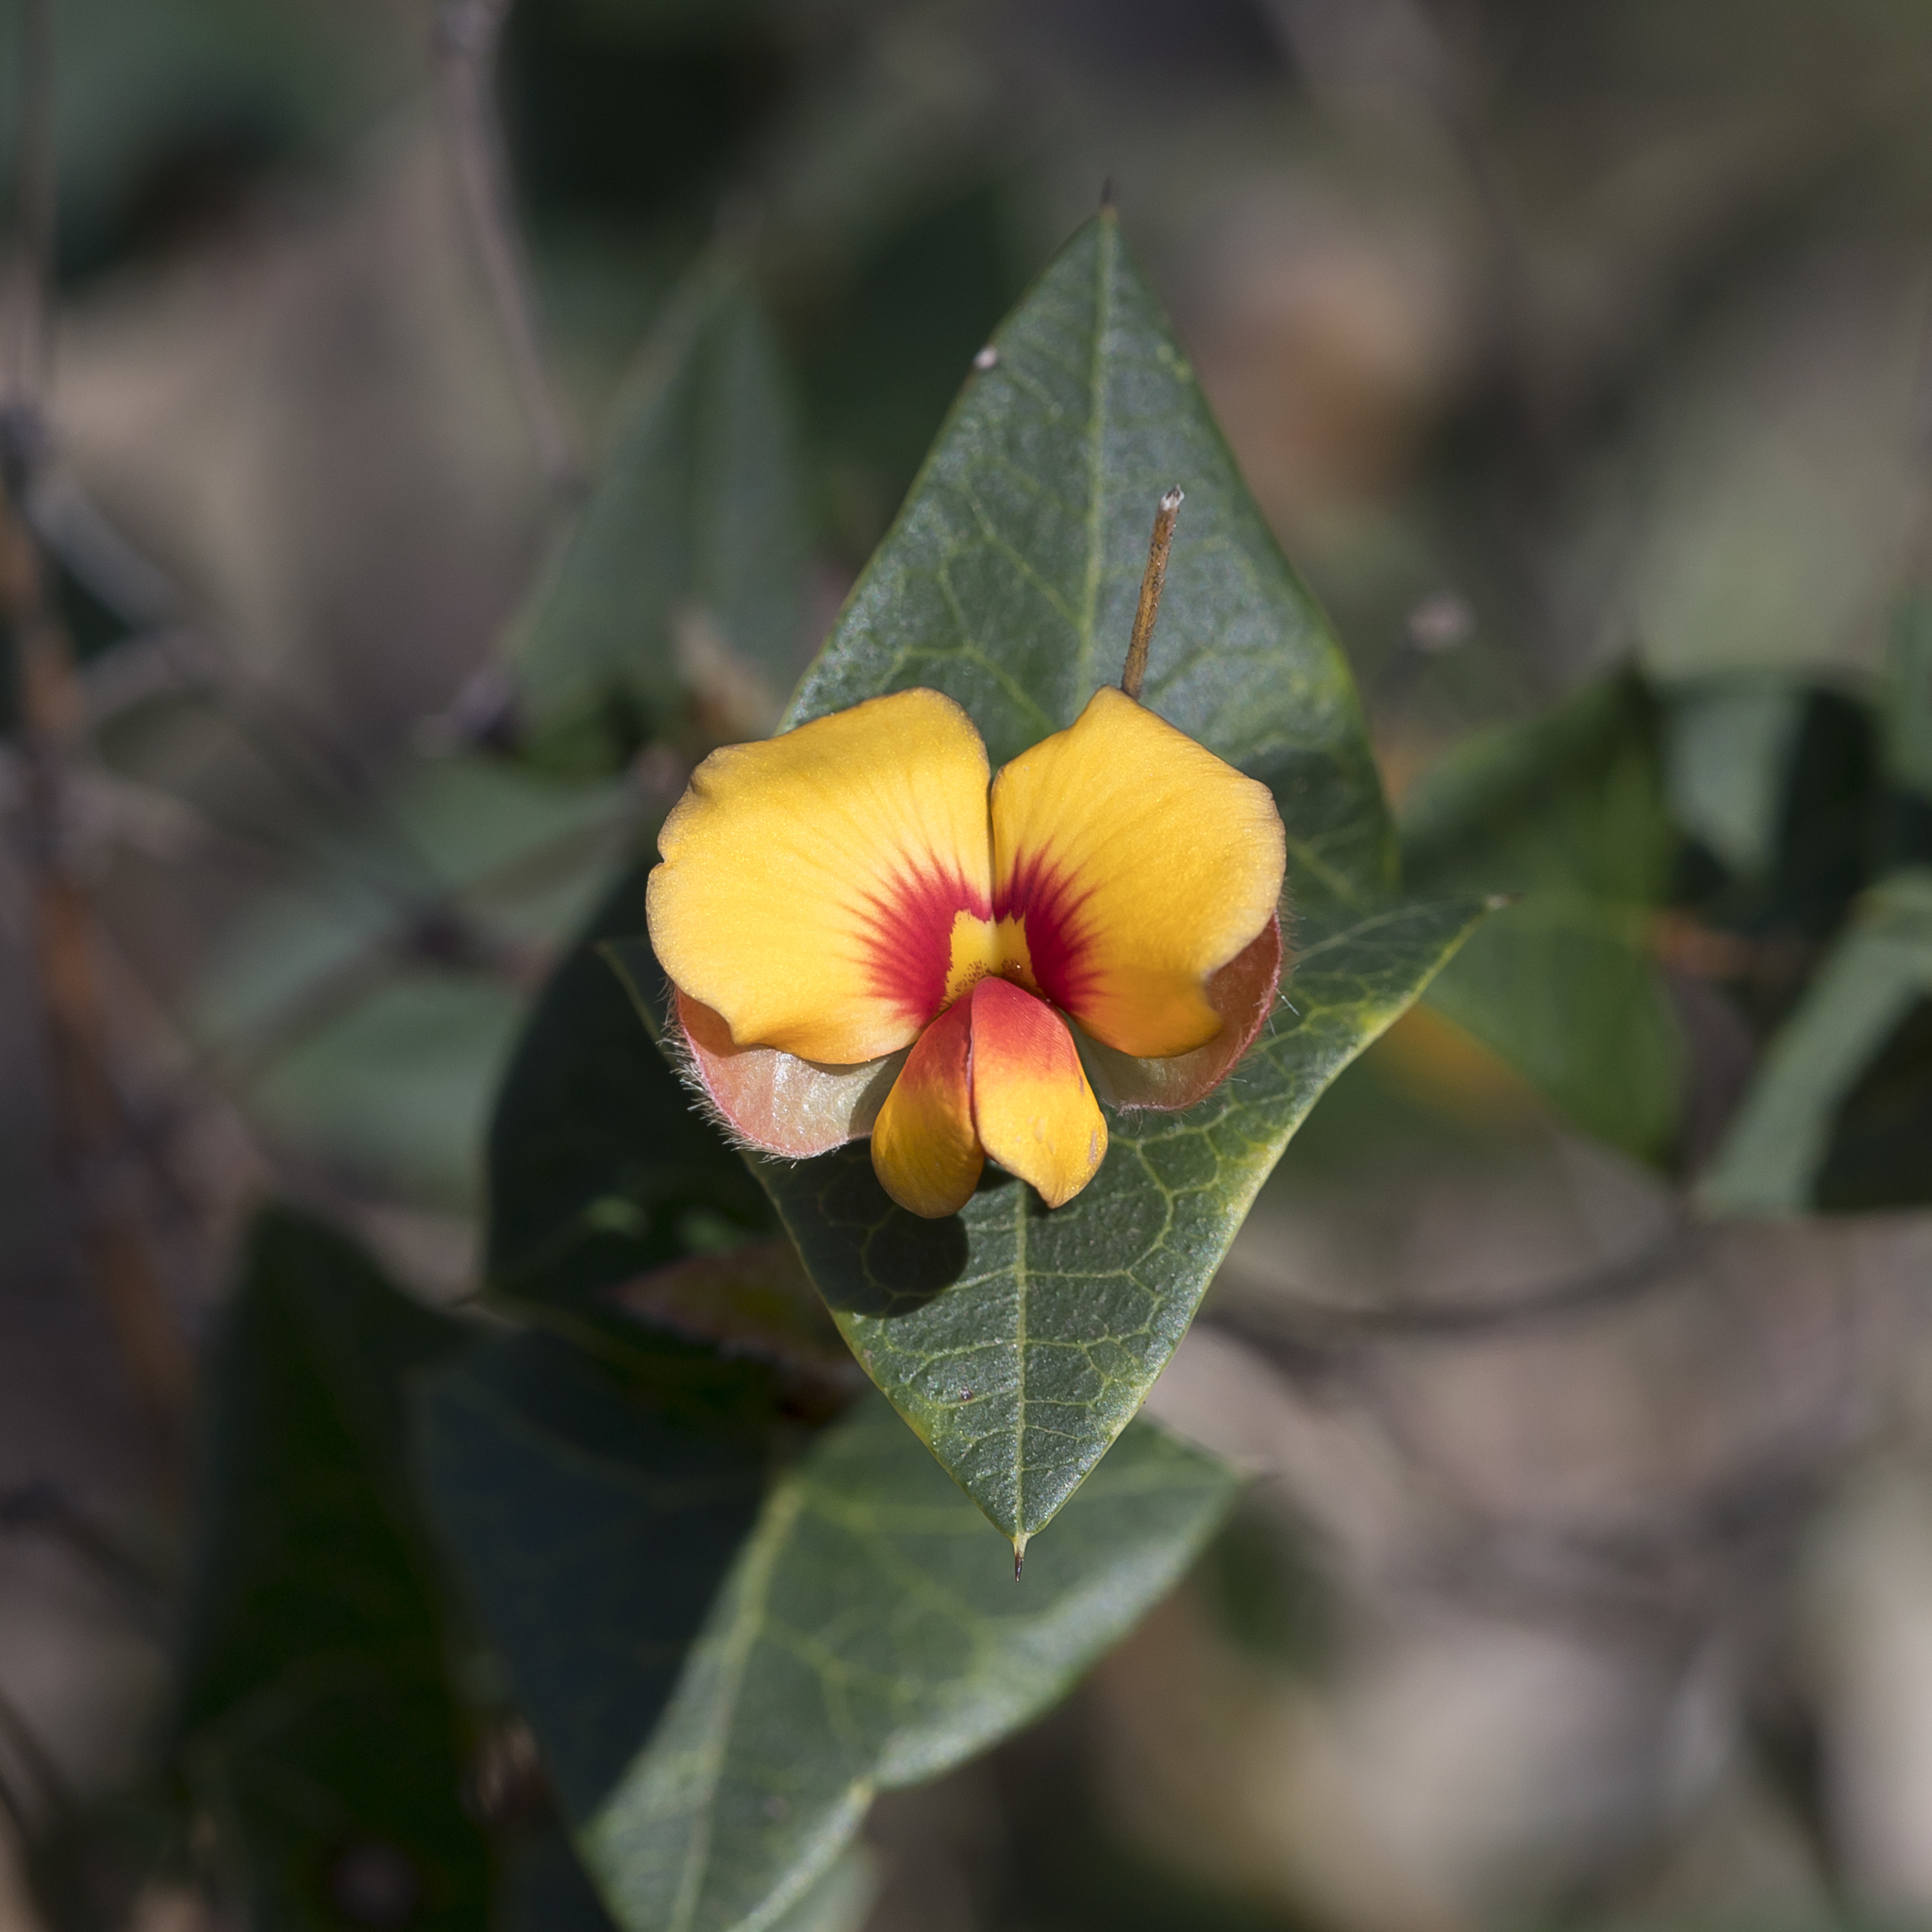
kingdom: Plantae
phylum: Tracheophyta
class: Magnoliopsida
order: Fabales
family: Fabaceae
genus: Platylobium
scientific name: Platylobium obtusangulum
